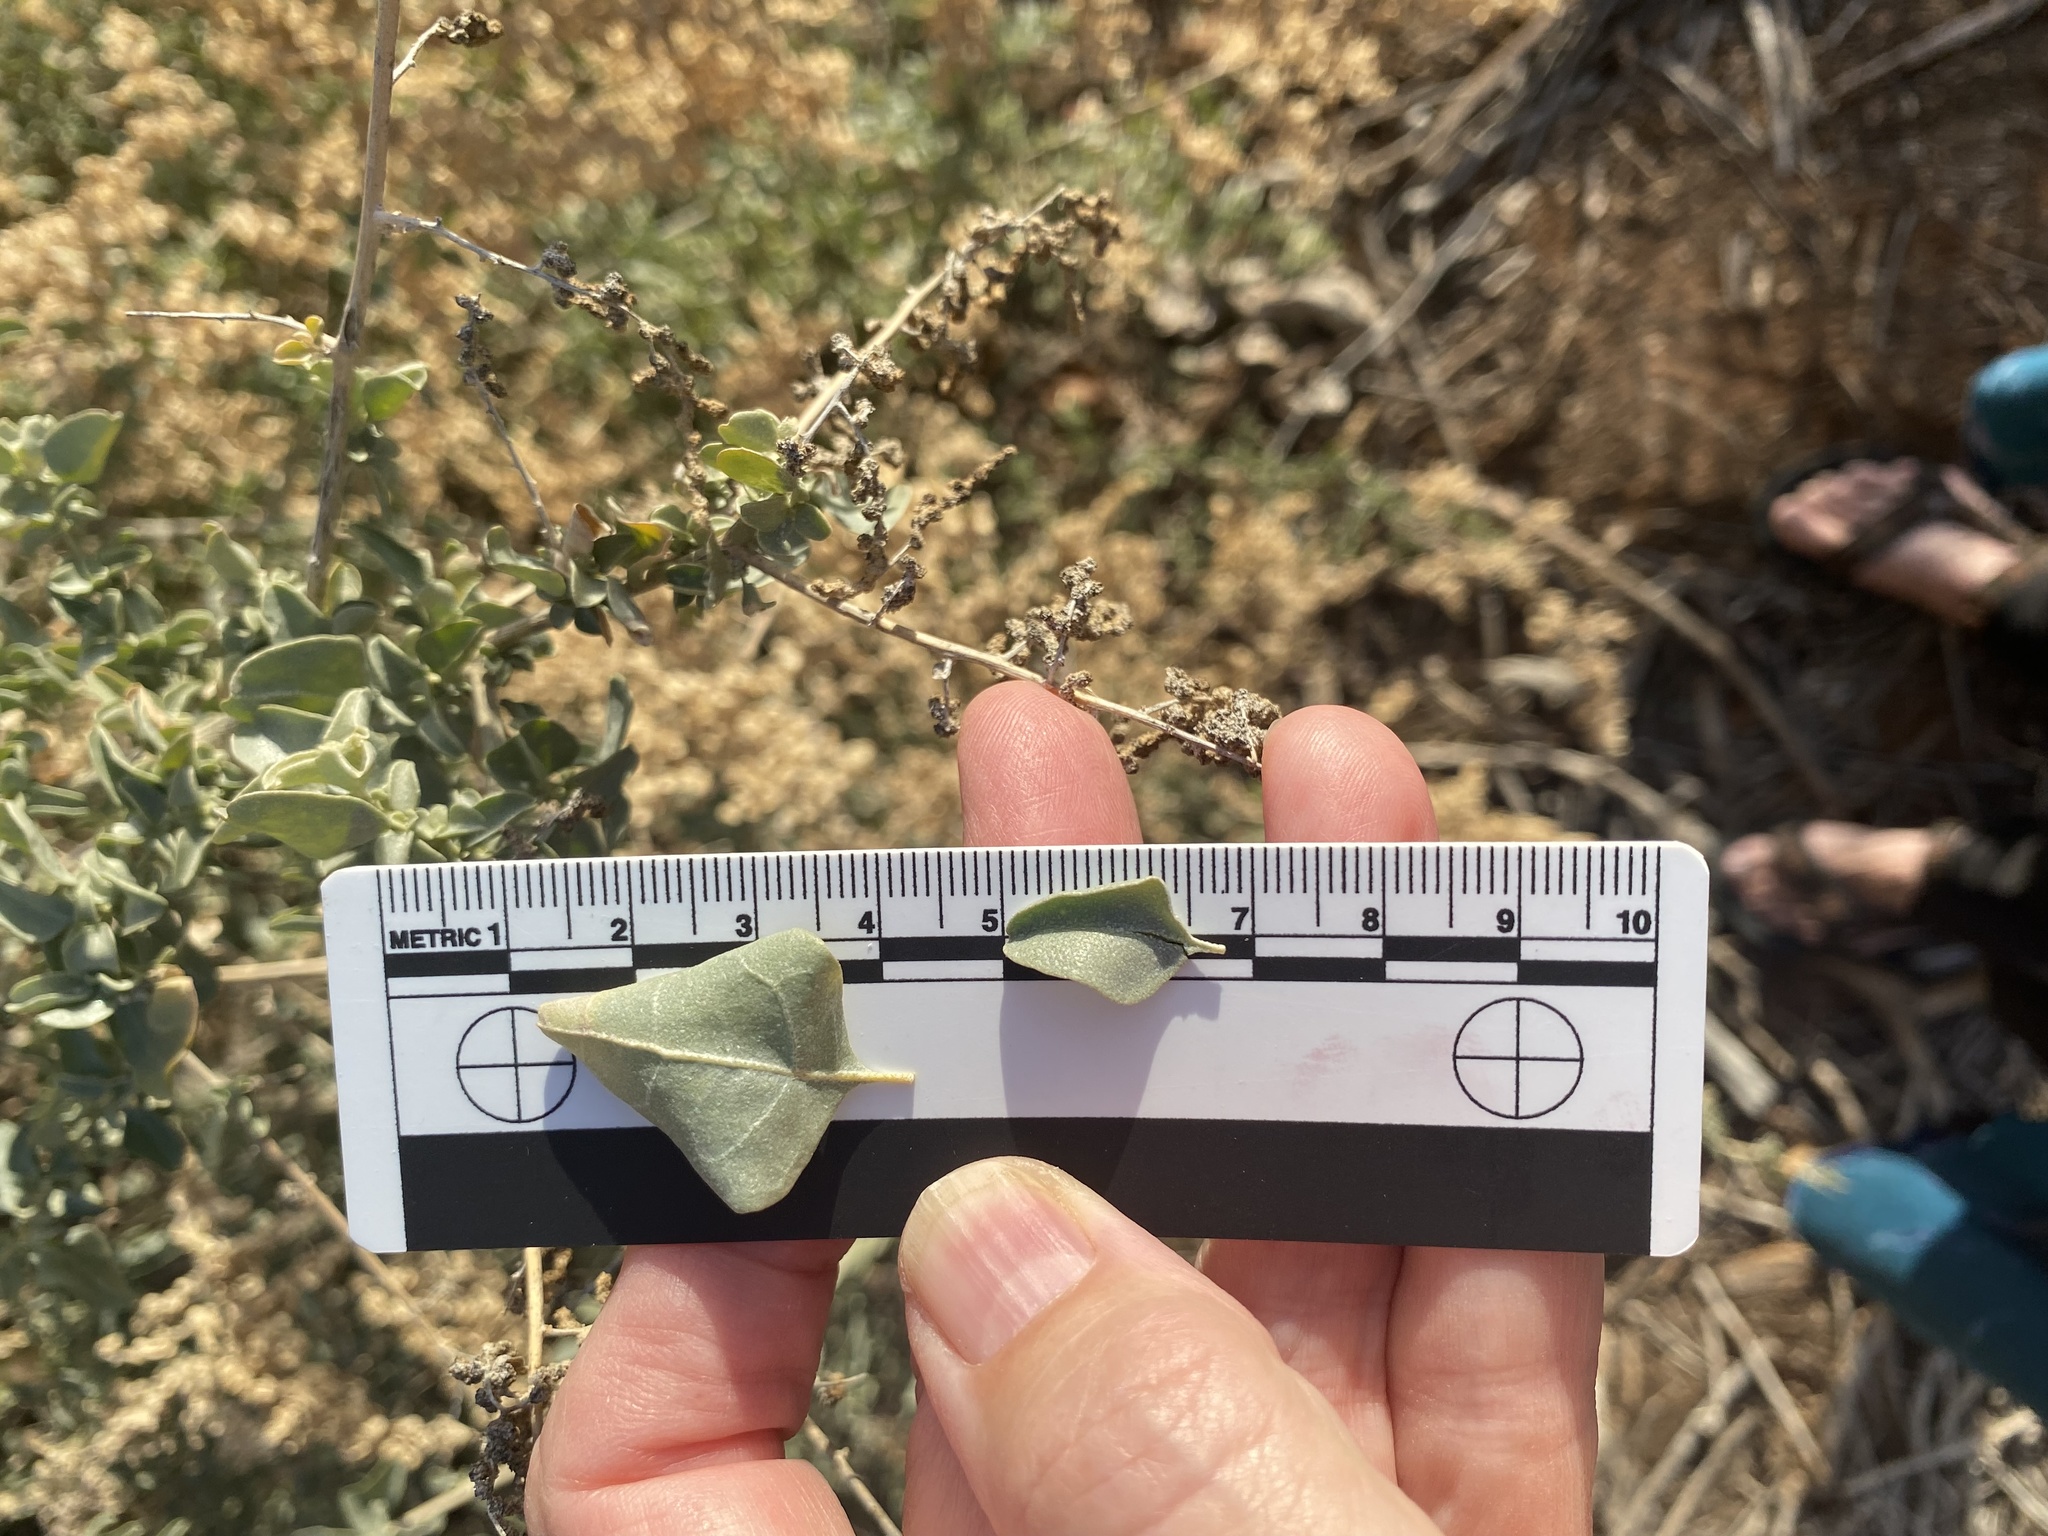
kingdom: Plantae
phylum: Tracheophyta
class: Magnoliopsida
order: Caryophyllales
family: Amaranthaceae
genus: Atriplex
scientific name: Atriplex lentiformis
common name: Big saltbush
